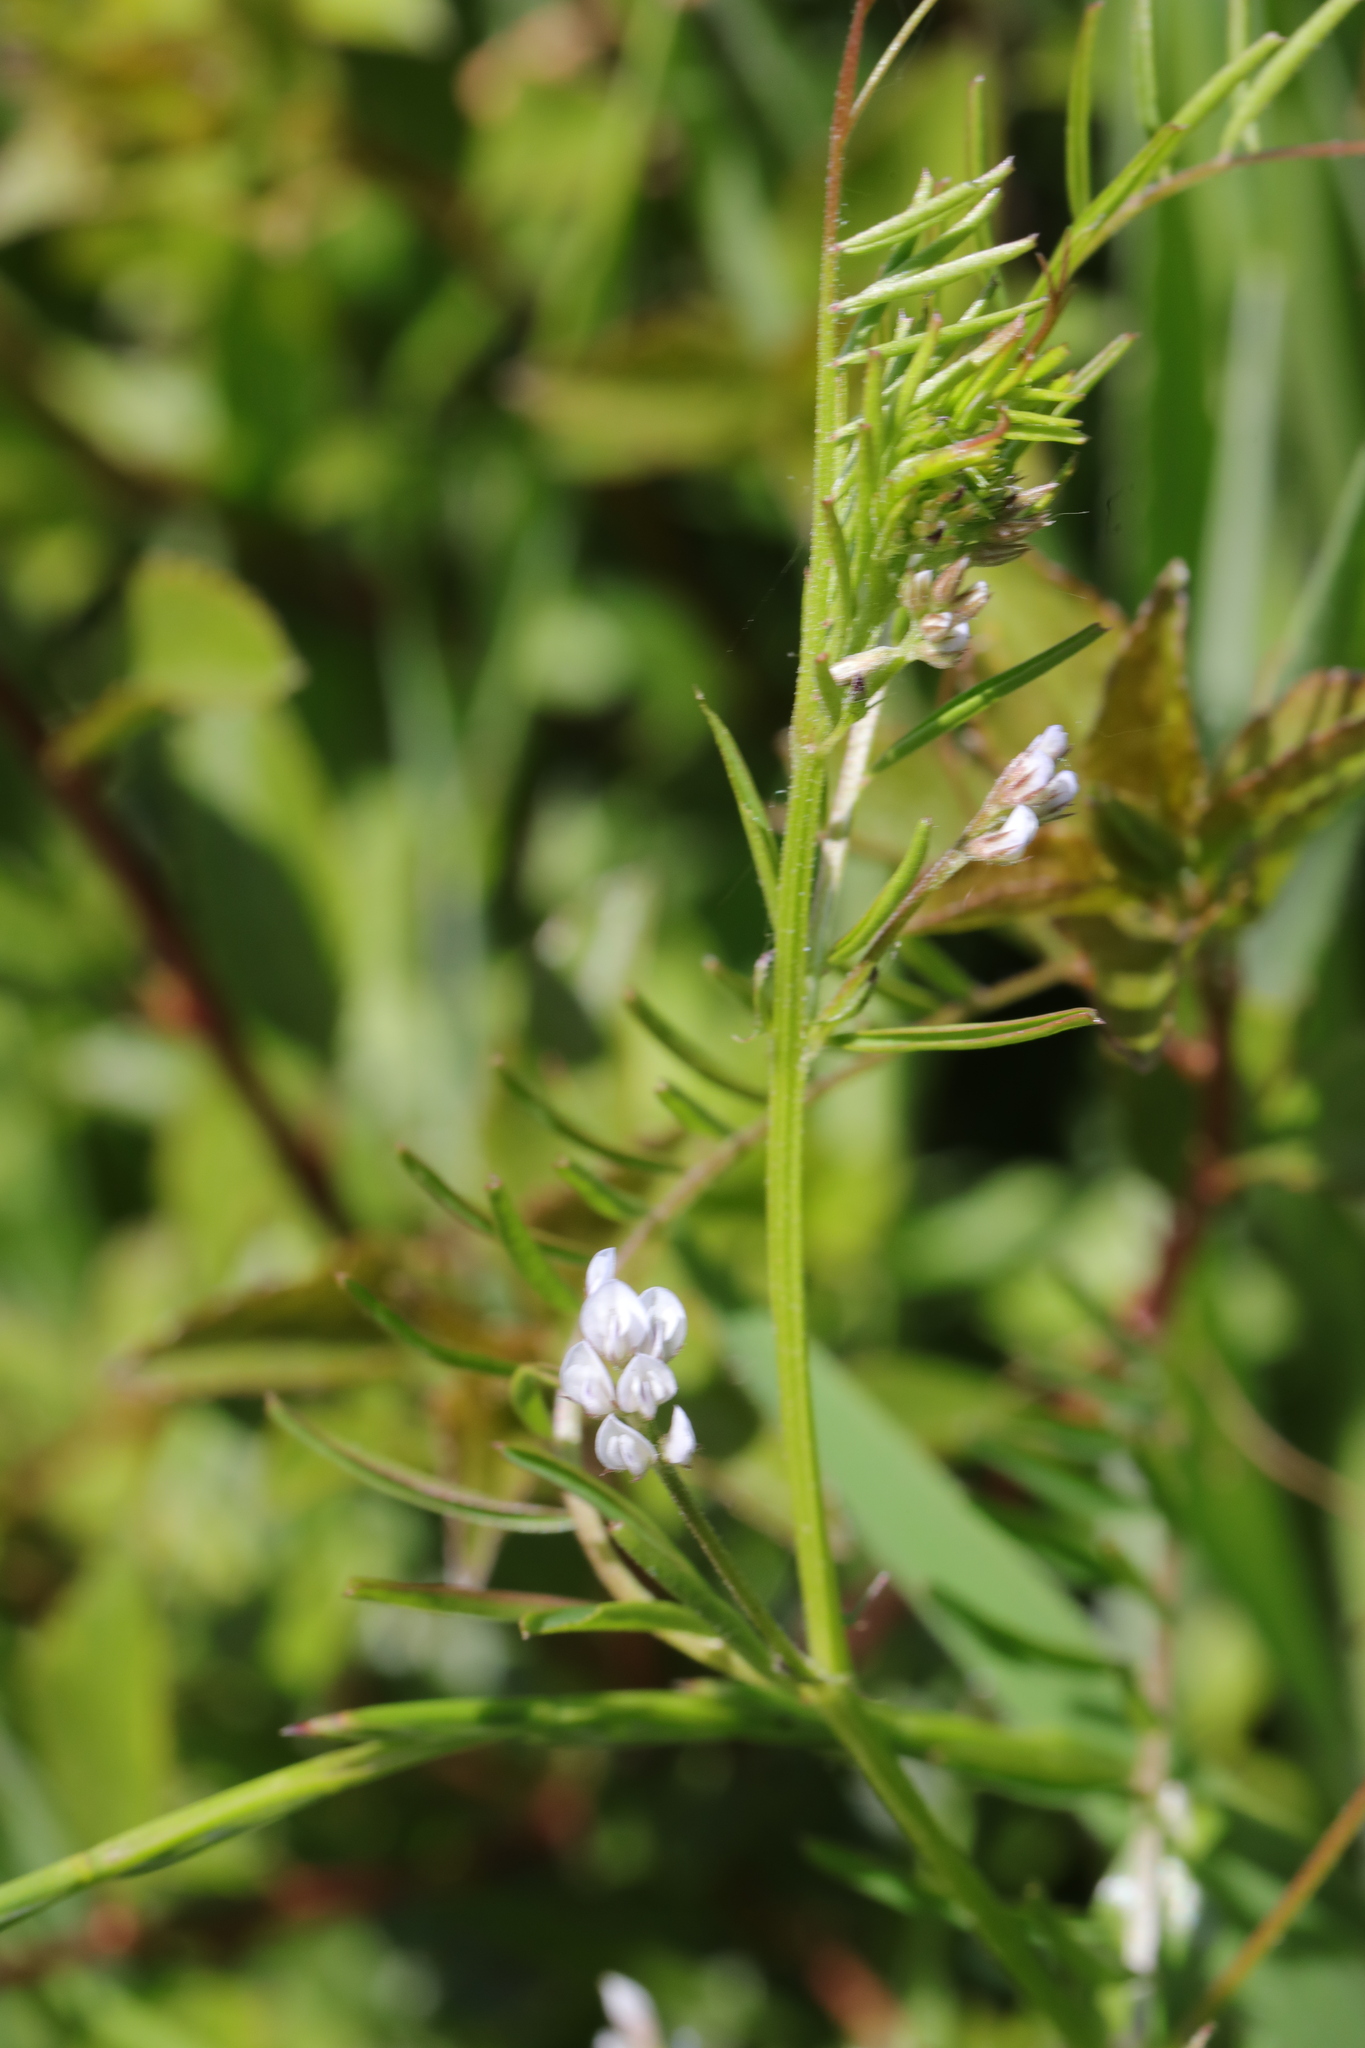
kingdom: Plantae
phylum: Tracheophyta
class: Magnoliopsida
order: Fabales
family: Fabaceae
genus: Vicia
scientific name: Vicia hirsuta
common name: Tiny vetch
